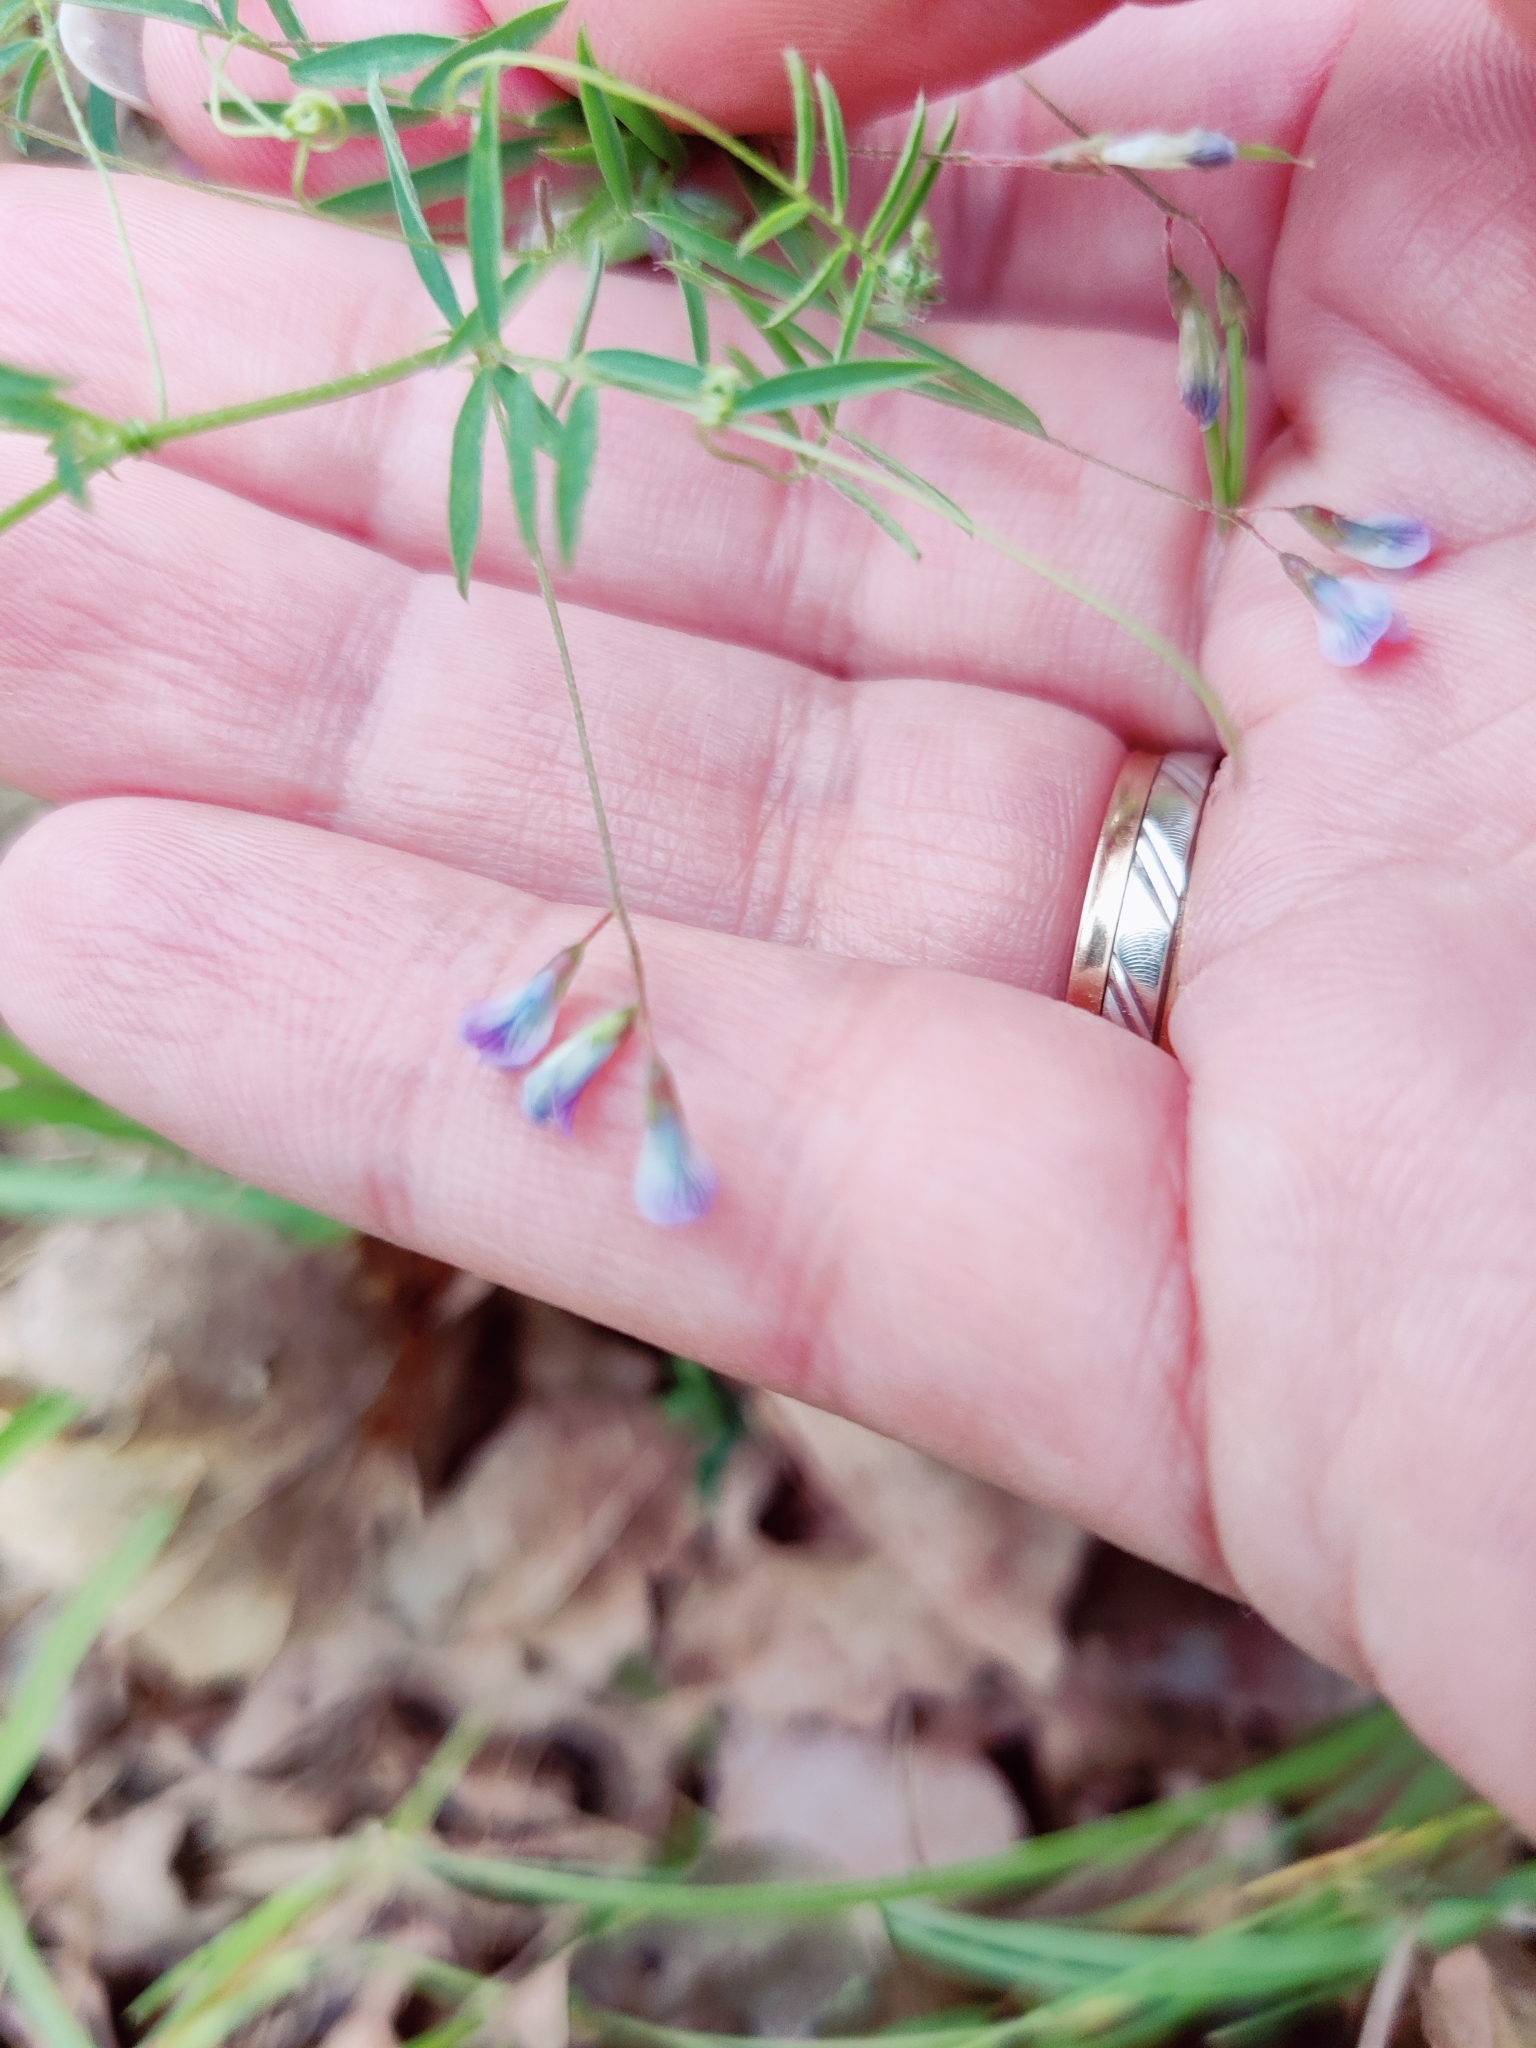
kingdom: Plantae
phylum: Tracheophyta
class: Magnoliopsida
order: Fabales
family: Fabaceae
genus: Vicia
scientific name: Vicia tetrasperma
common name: Smooth tare
